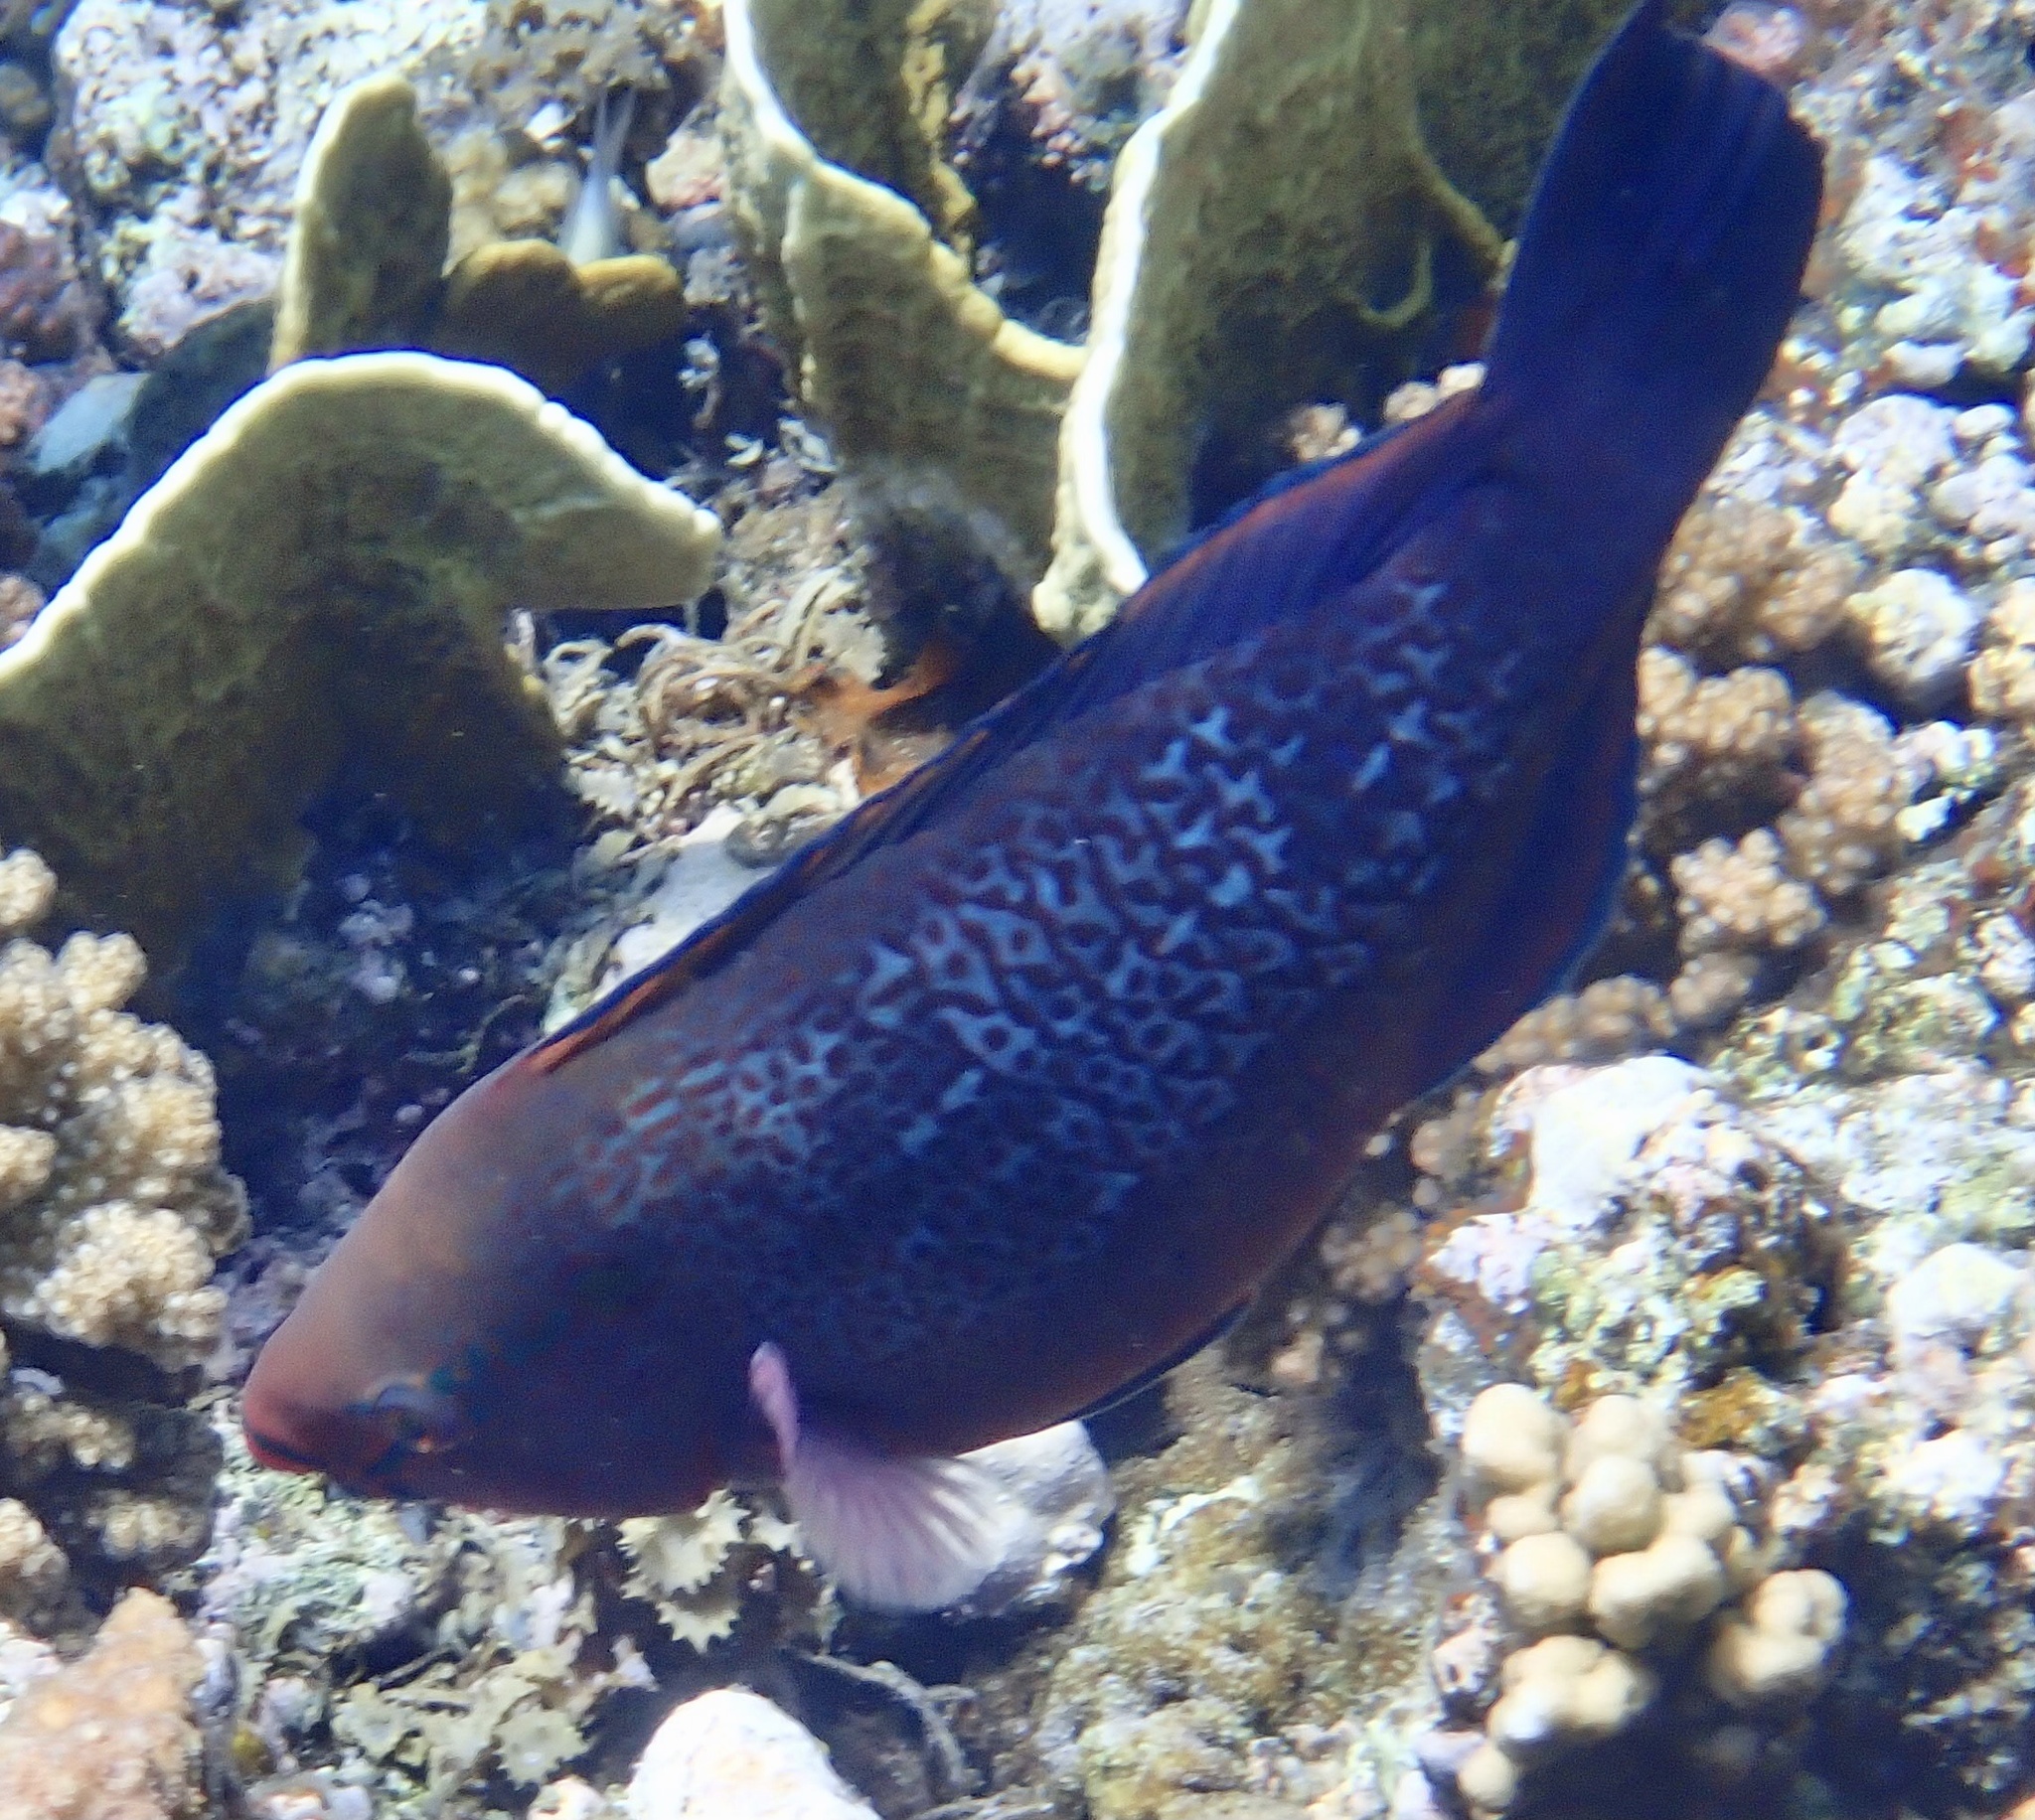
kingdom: Animalia
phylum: Chordata
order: Perciformes
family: Scaridae
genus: Scarus
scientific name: Scarus niger
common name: Dusky parrotfish
